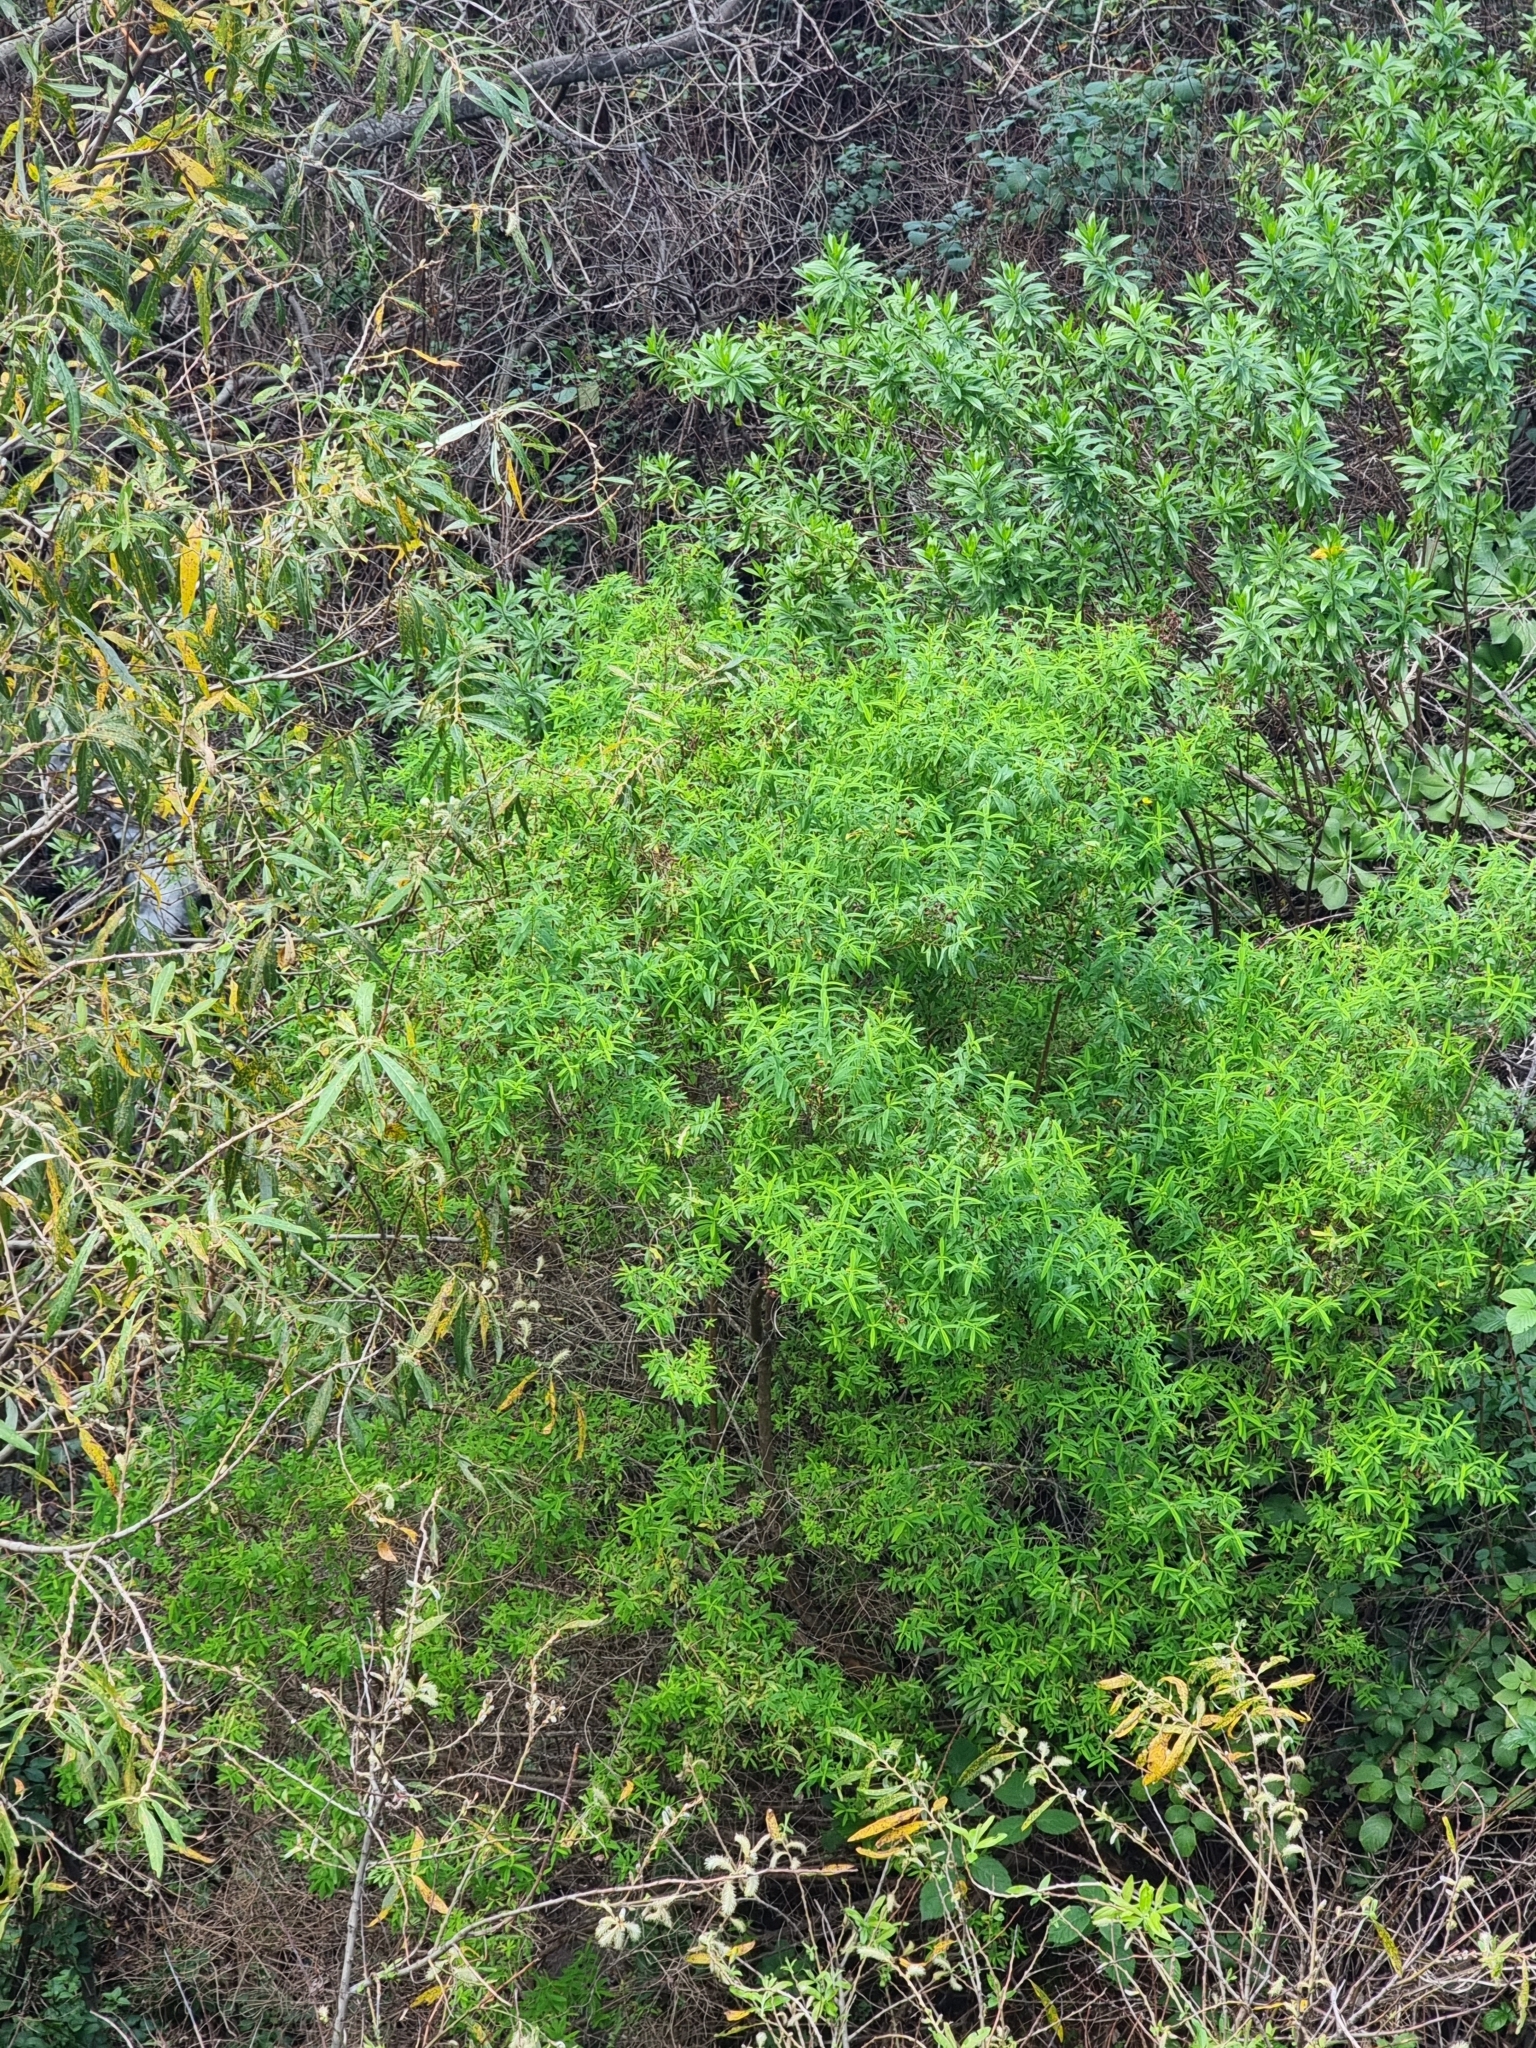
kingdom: Plantae
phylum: Tracheophyta
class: Magnoliopsida
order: Malpighiales
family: Hypericaceae
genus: Hypericum
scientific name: Hypericum canariense
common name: Canary island st. johnswort
